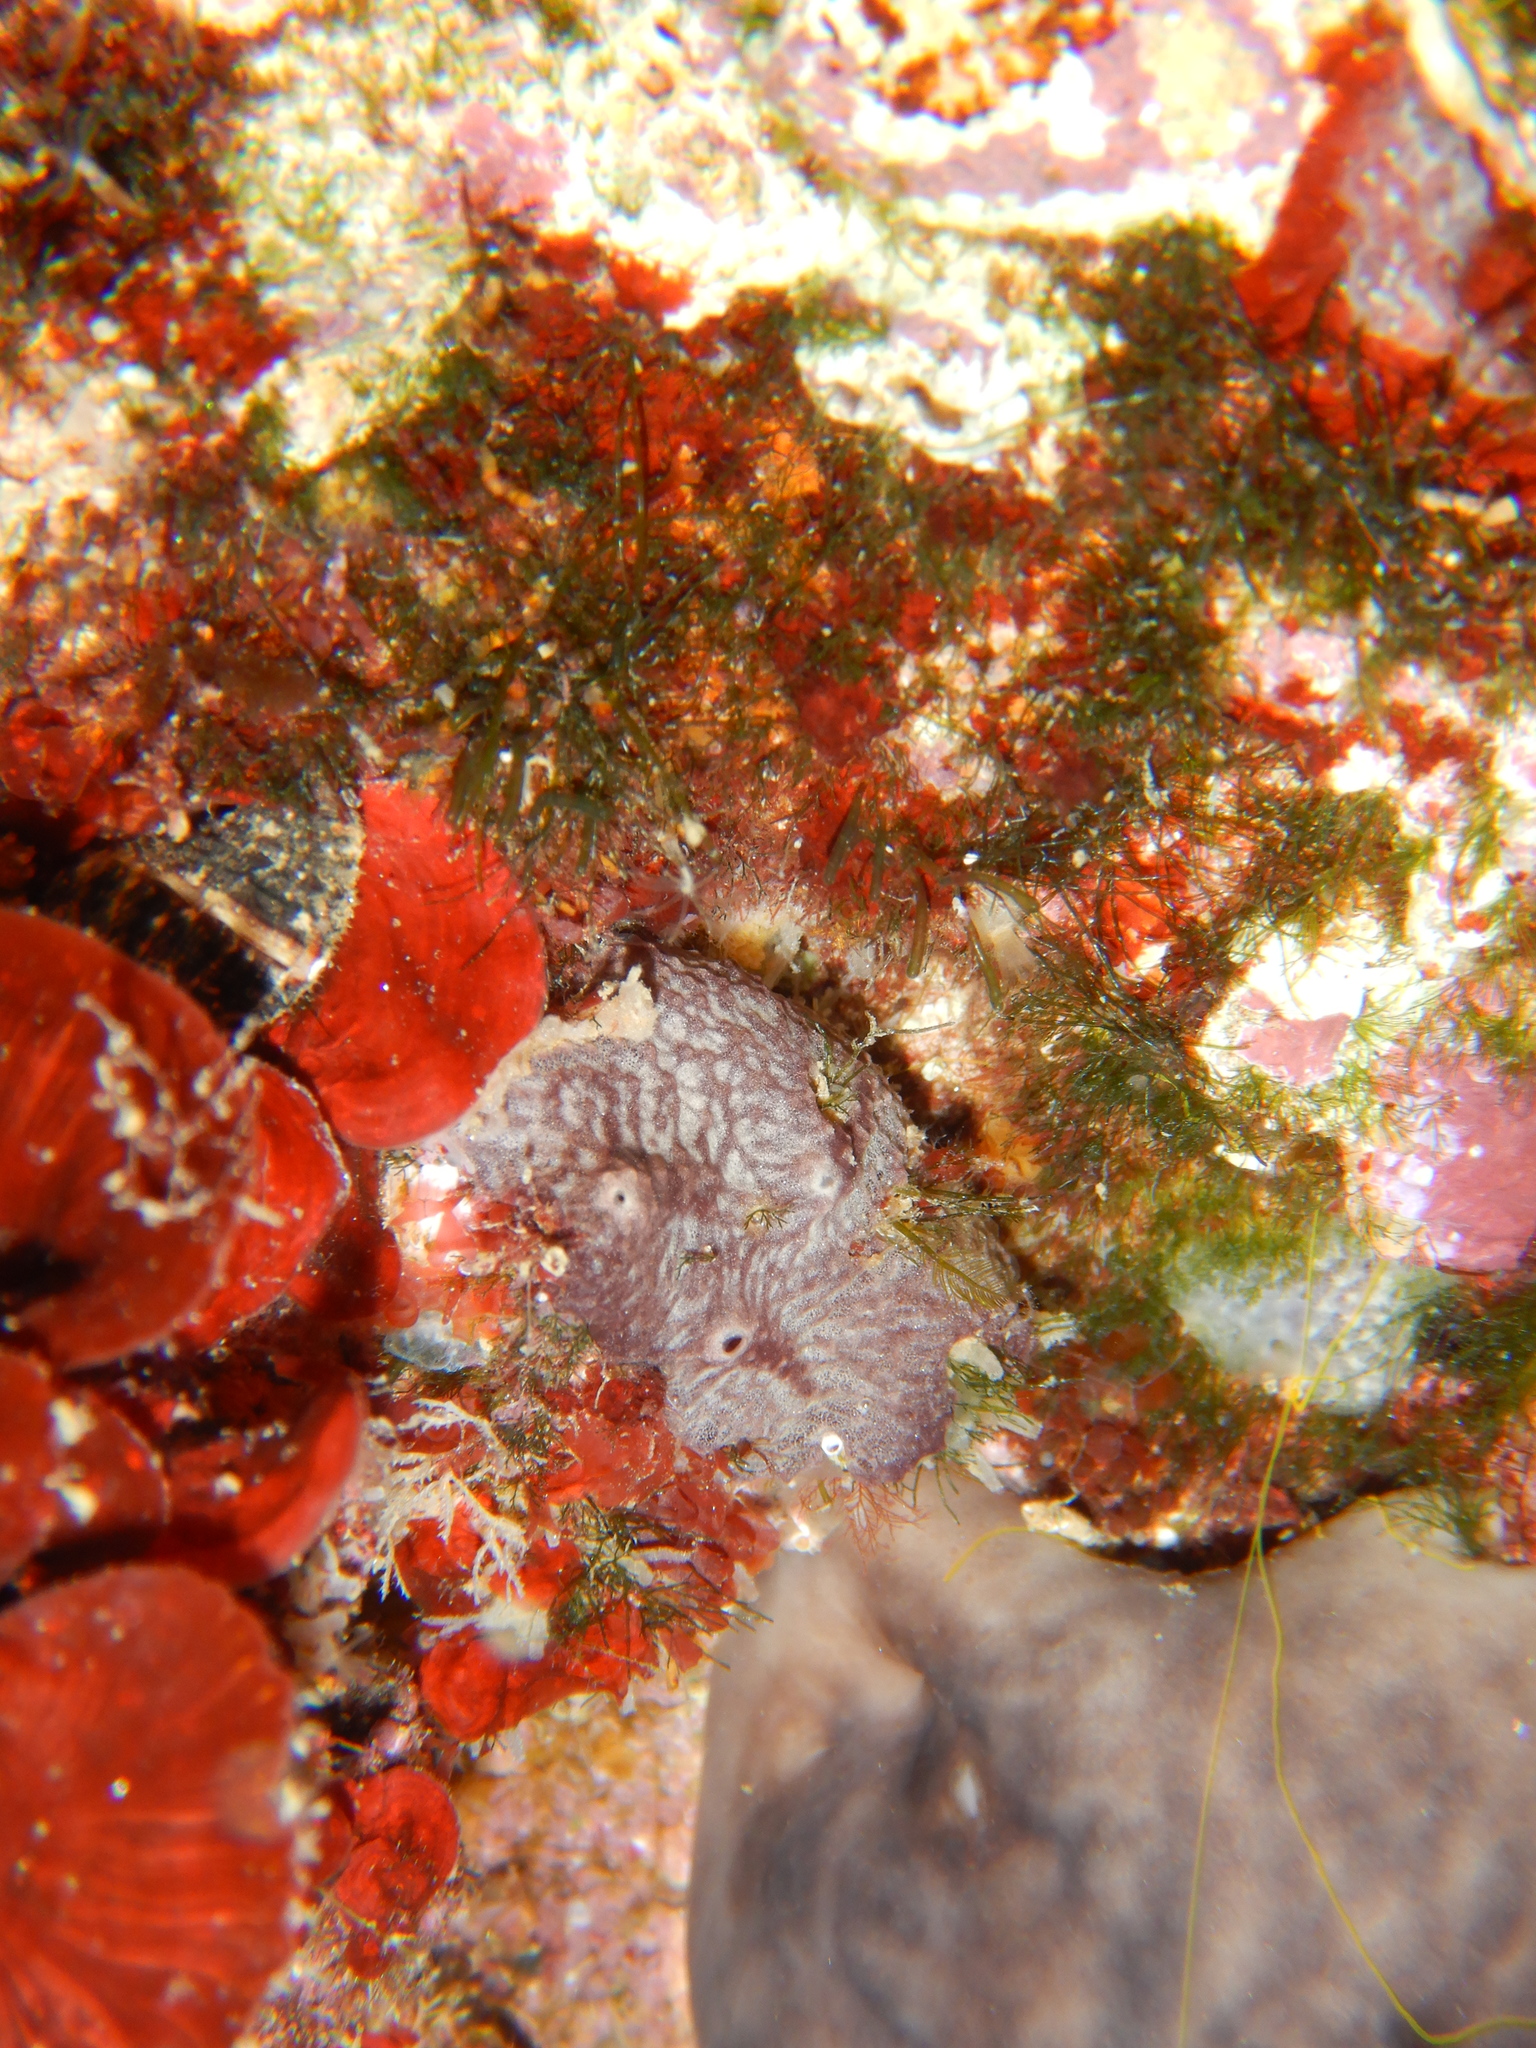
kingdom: Animalia
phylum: Porifera
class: Demospongiae
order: Dictyoceratida
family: Irciniidae
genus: Ircinia
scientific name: Ircinia variabilis
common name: Variable loggerhead sponge
